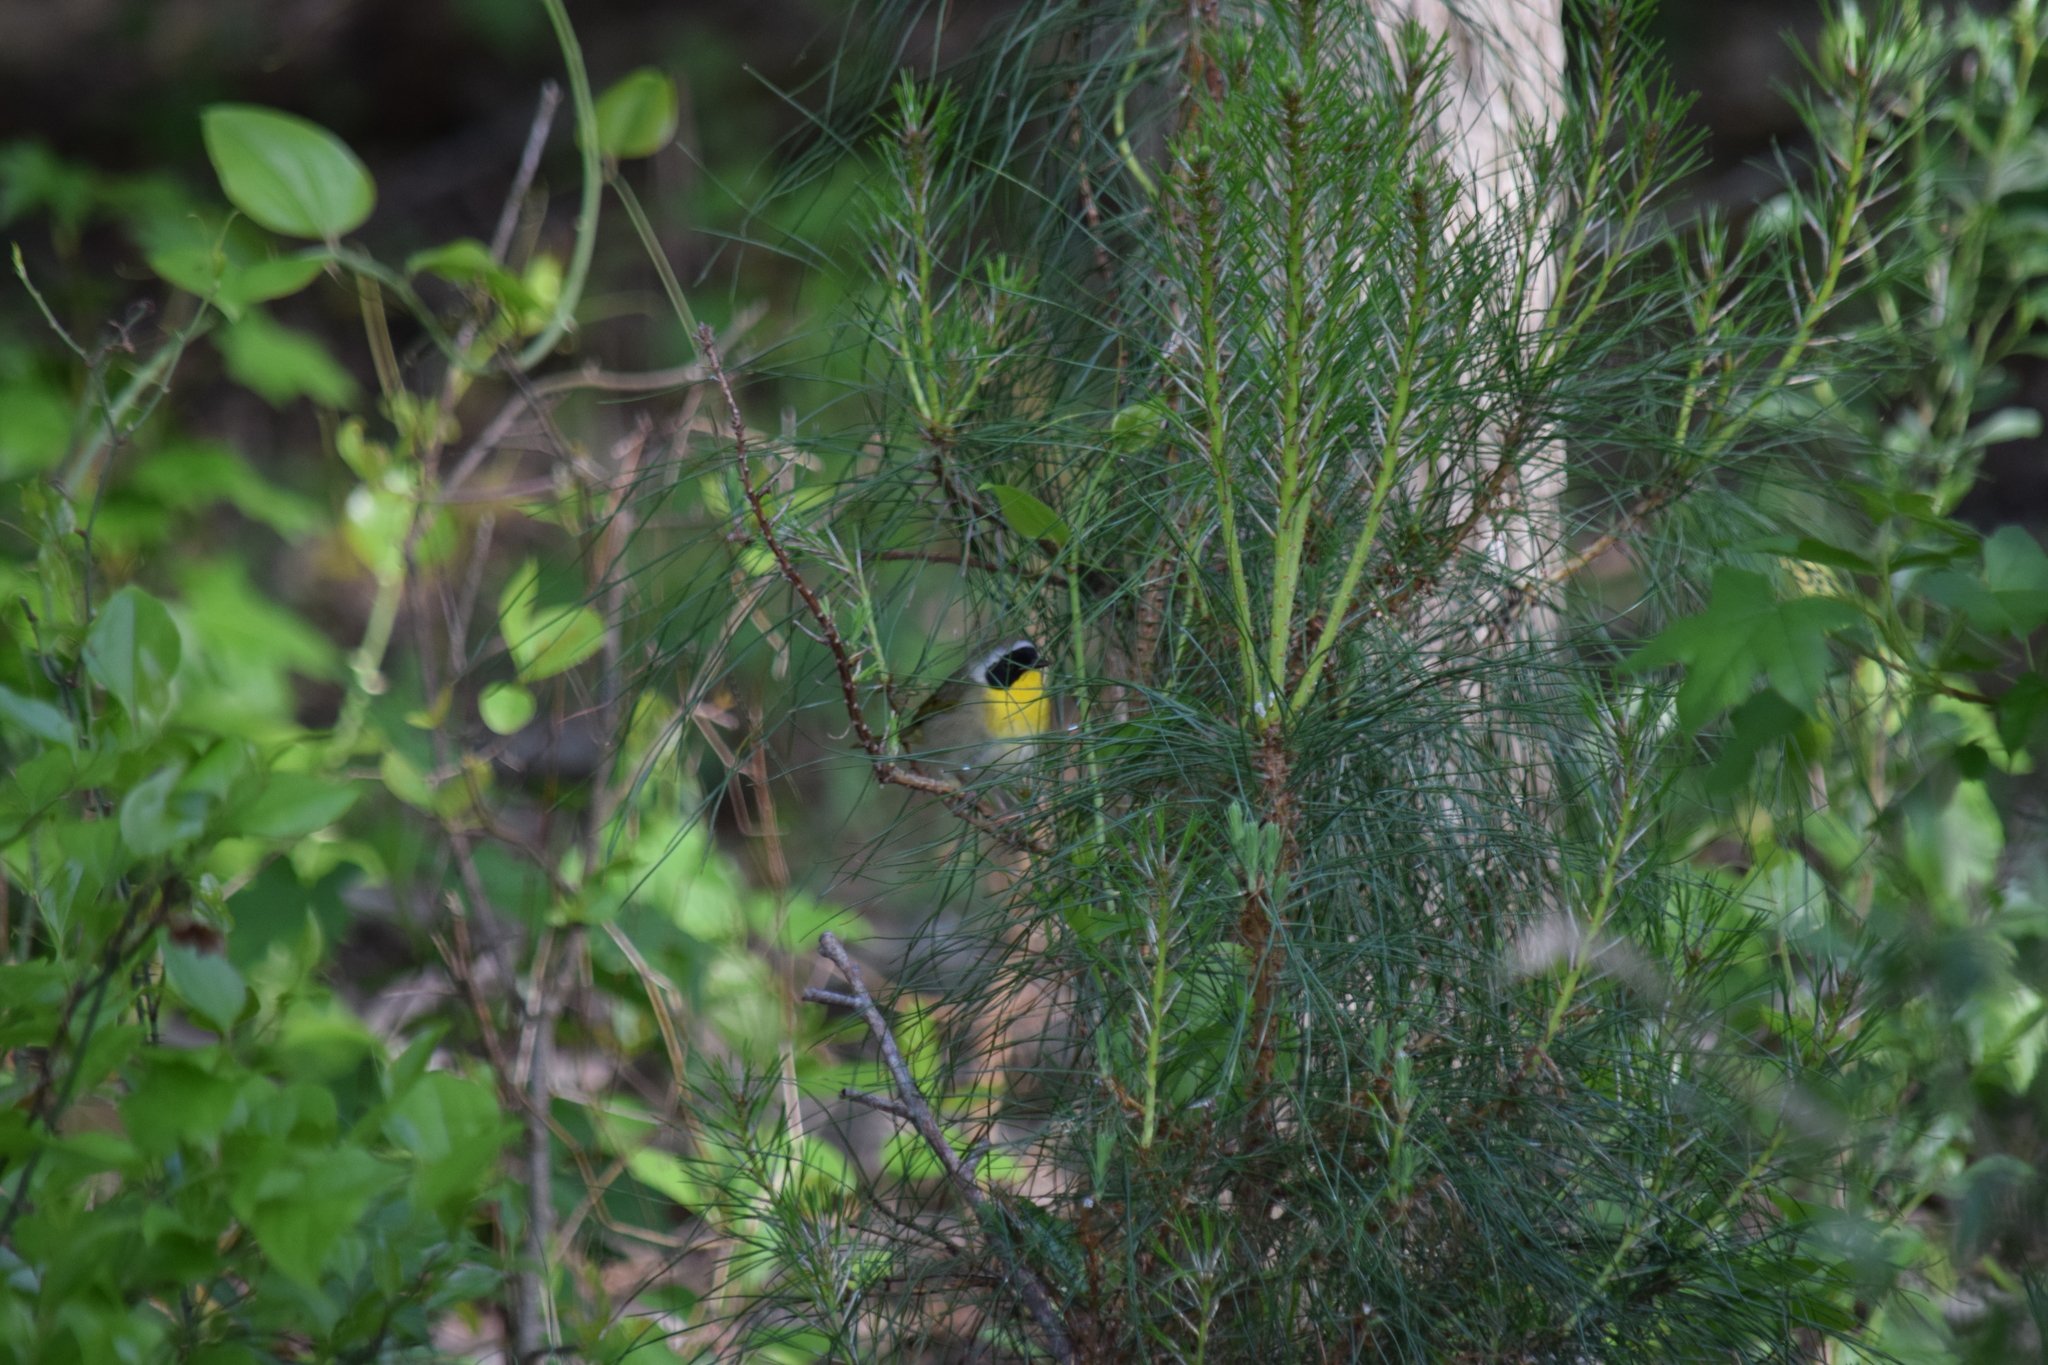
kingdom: Animalia
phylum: Chordata
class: Aves
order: Passeriformes
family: Parulidae
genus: Geothlypis
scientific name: Geothlypis trichas
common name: Common yellowthroat
